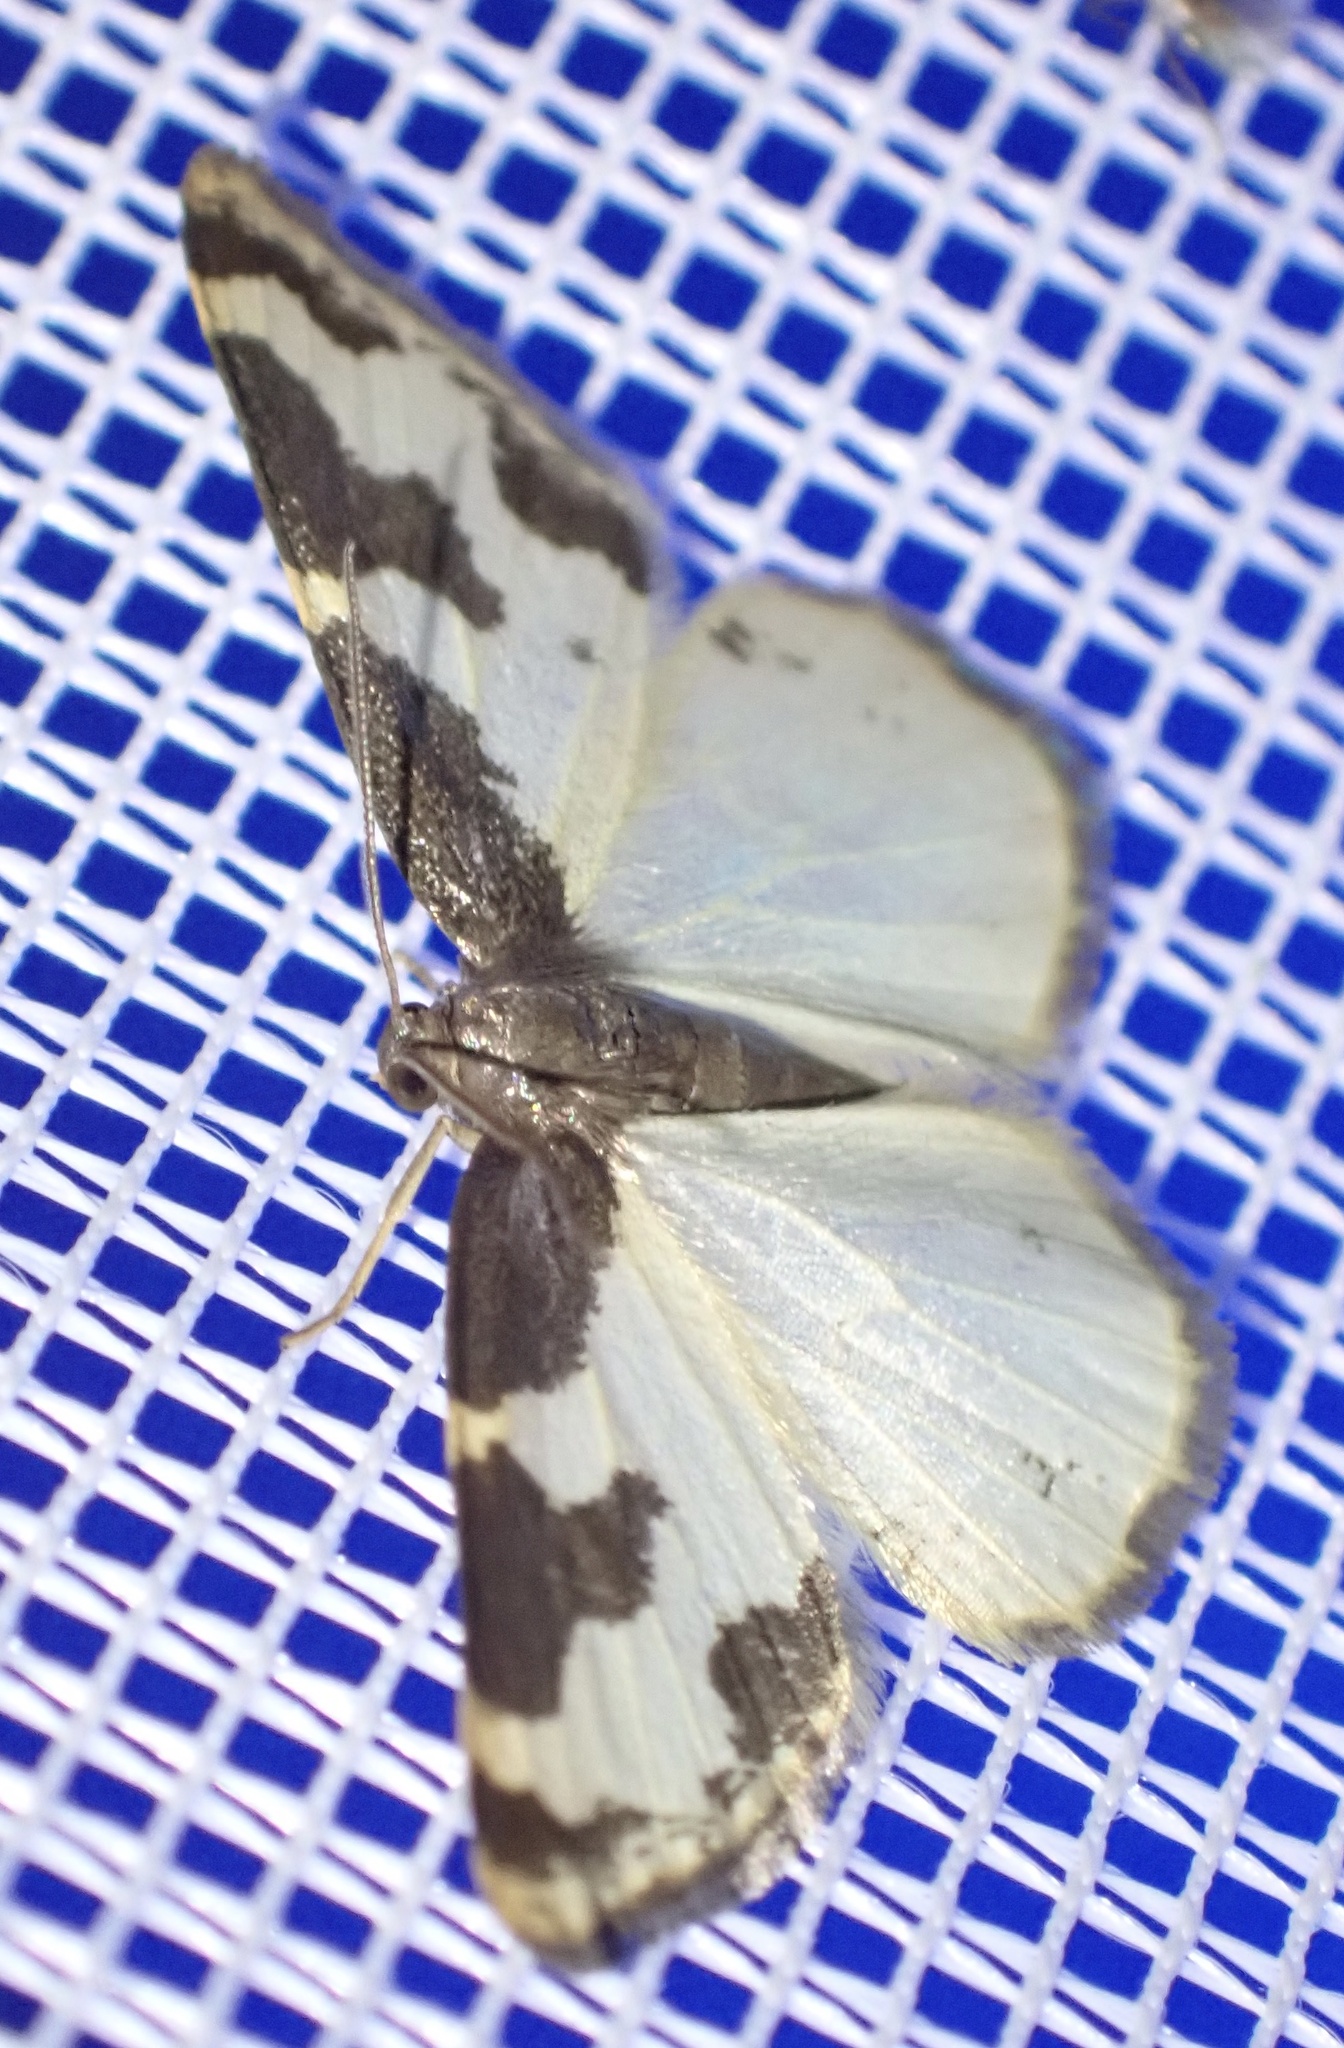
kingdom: Animalia
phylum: Arthropoda
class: Insecta
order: Lepidoptera
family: Geometridae
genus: Lomaspilis
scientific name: Lomaspilis marginata
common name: Clouded border
